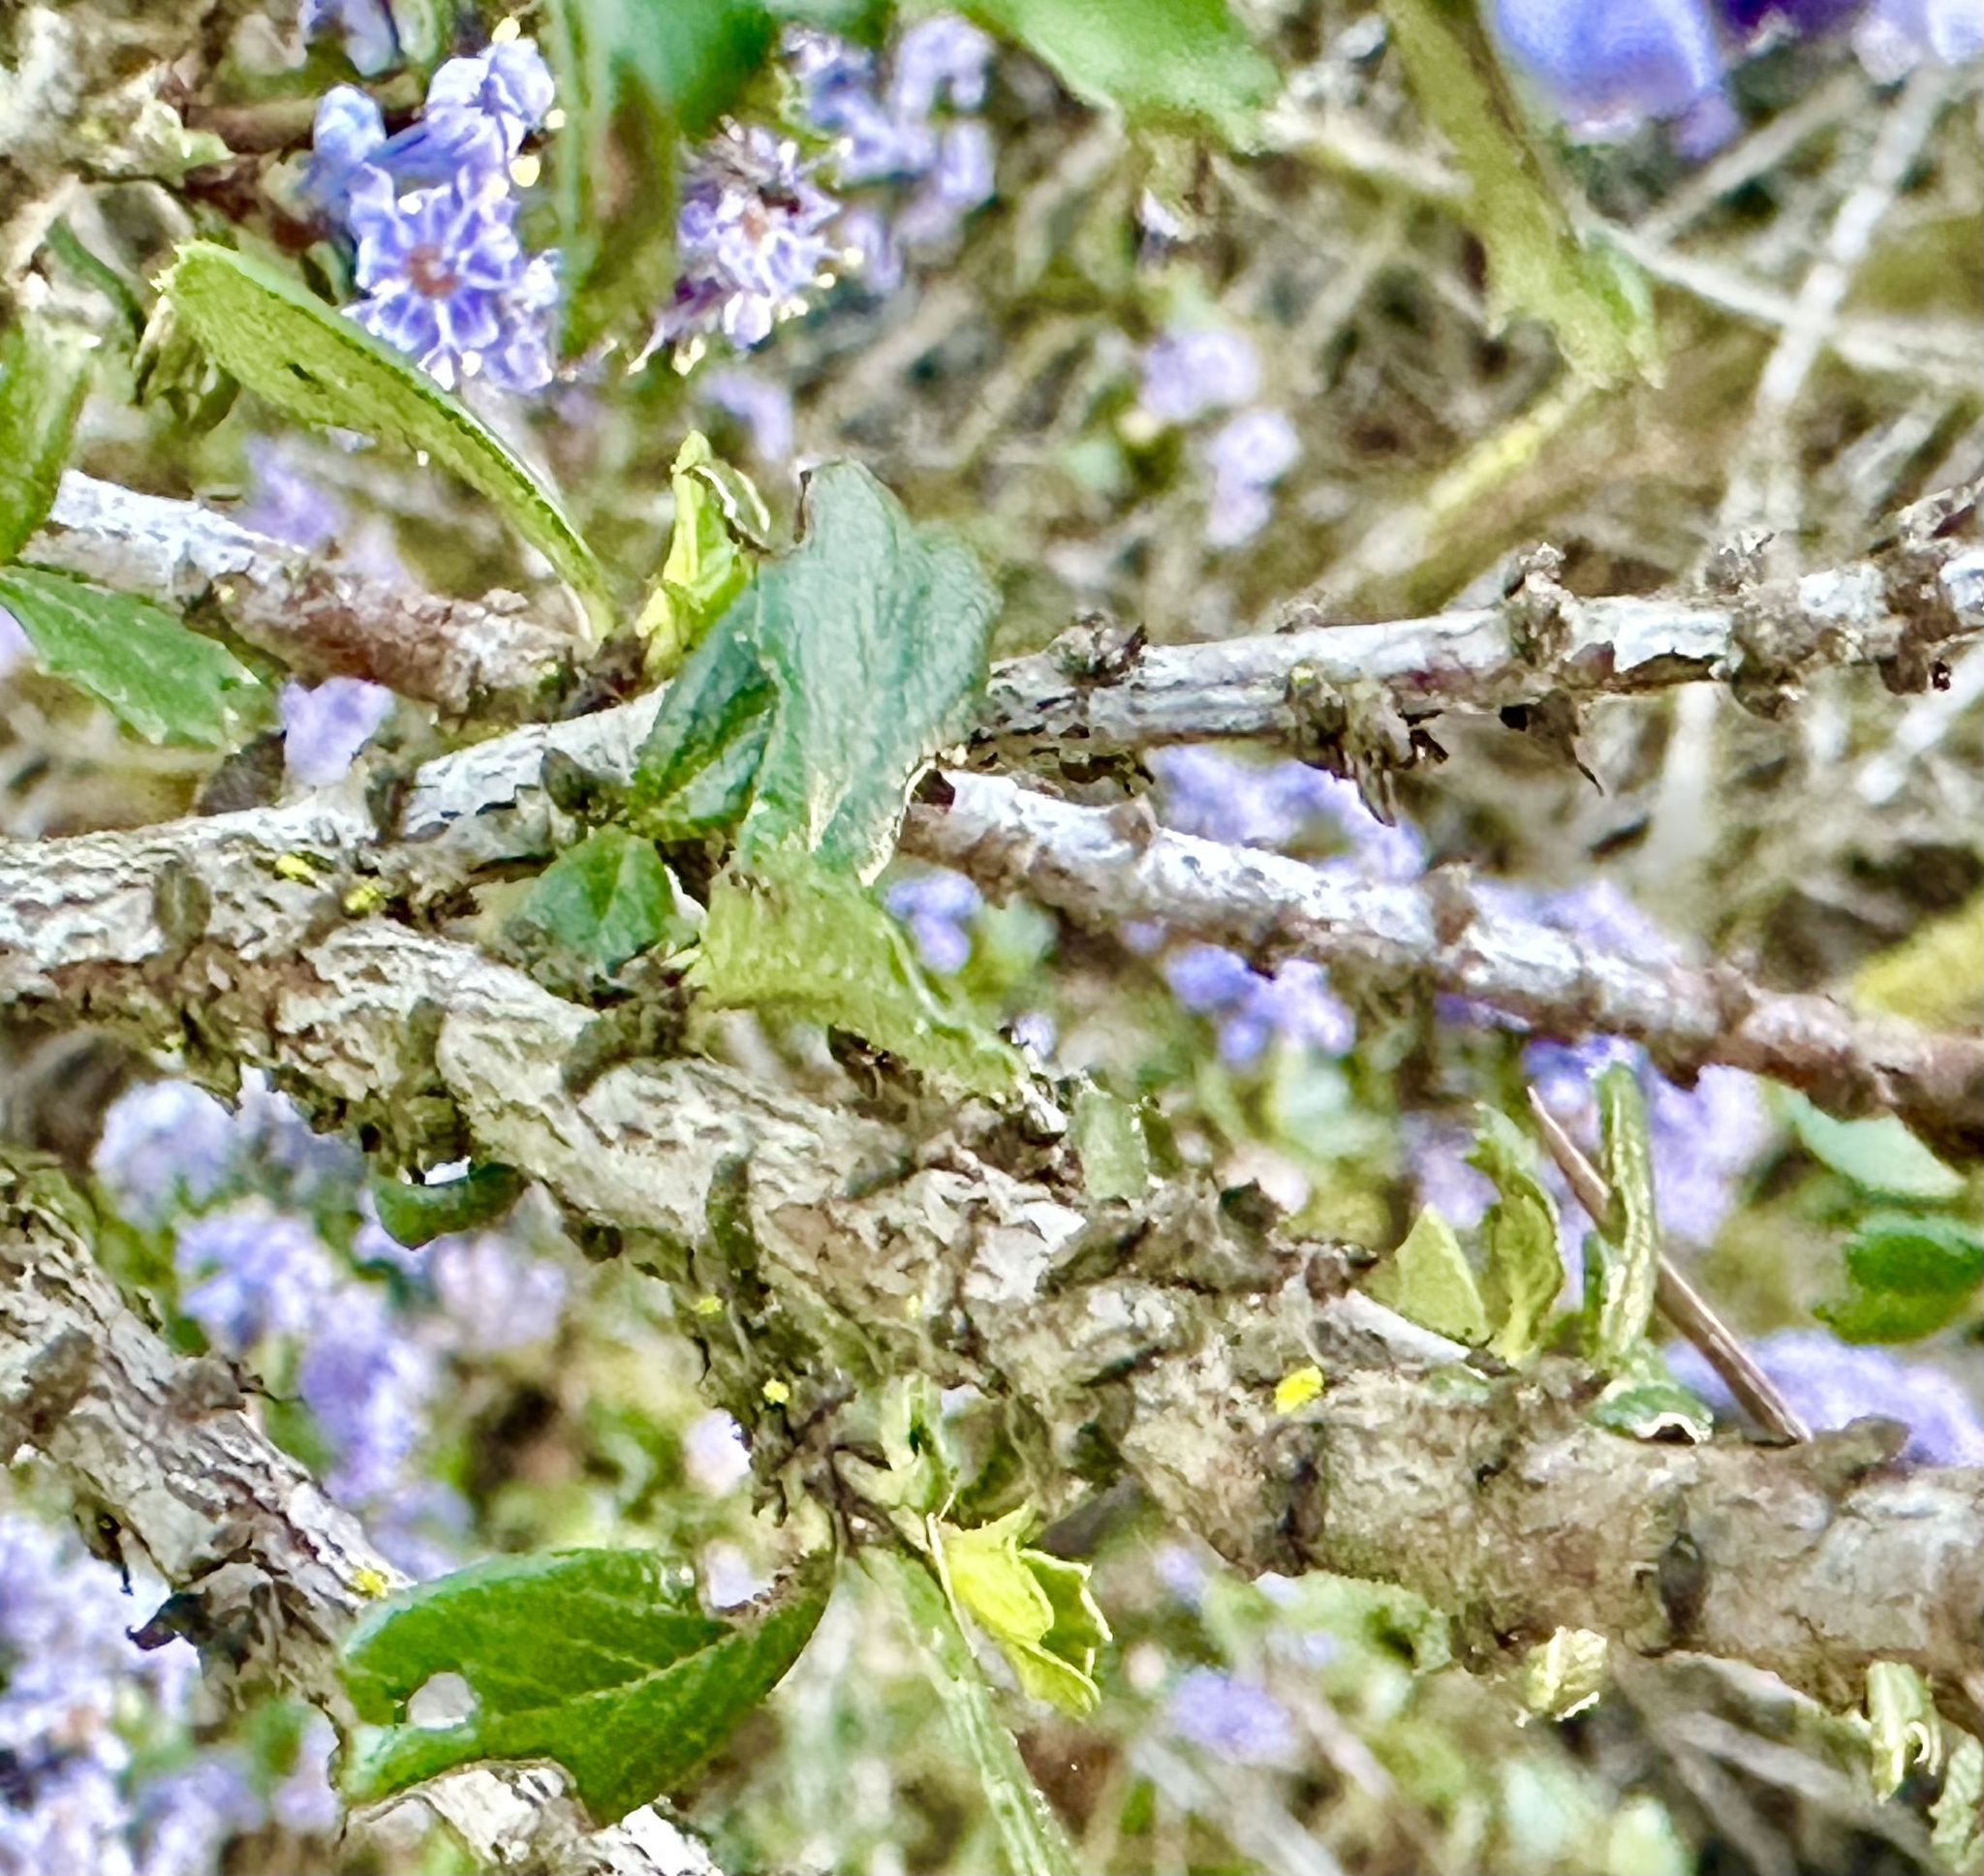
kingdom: Plantae
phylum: Tracheophyta
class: Magnoliopsida
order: Rosales
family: Rhamnaceae
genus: Ceanothus
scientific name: Ceanothus cuneatus
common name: Cuneate ceanothus
